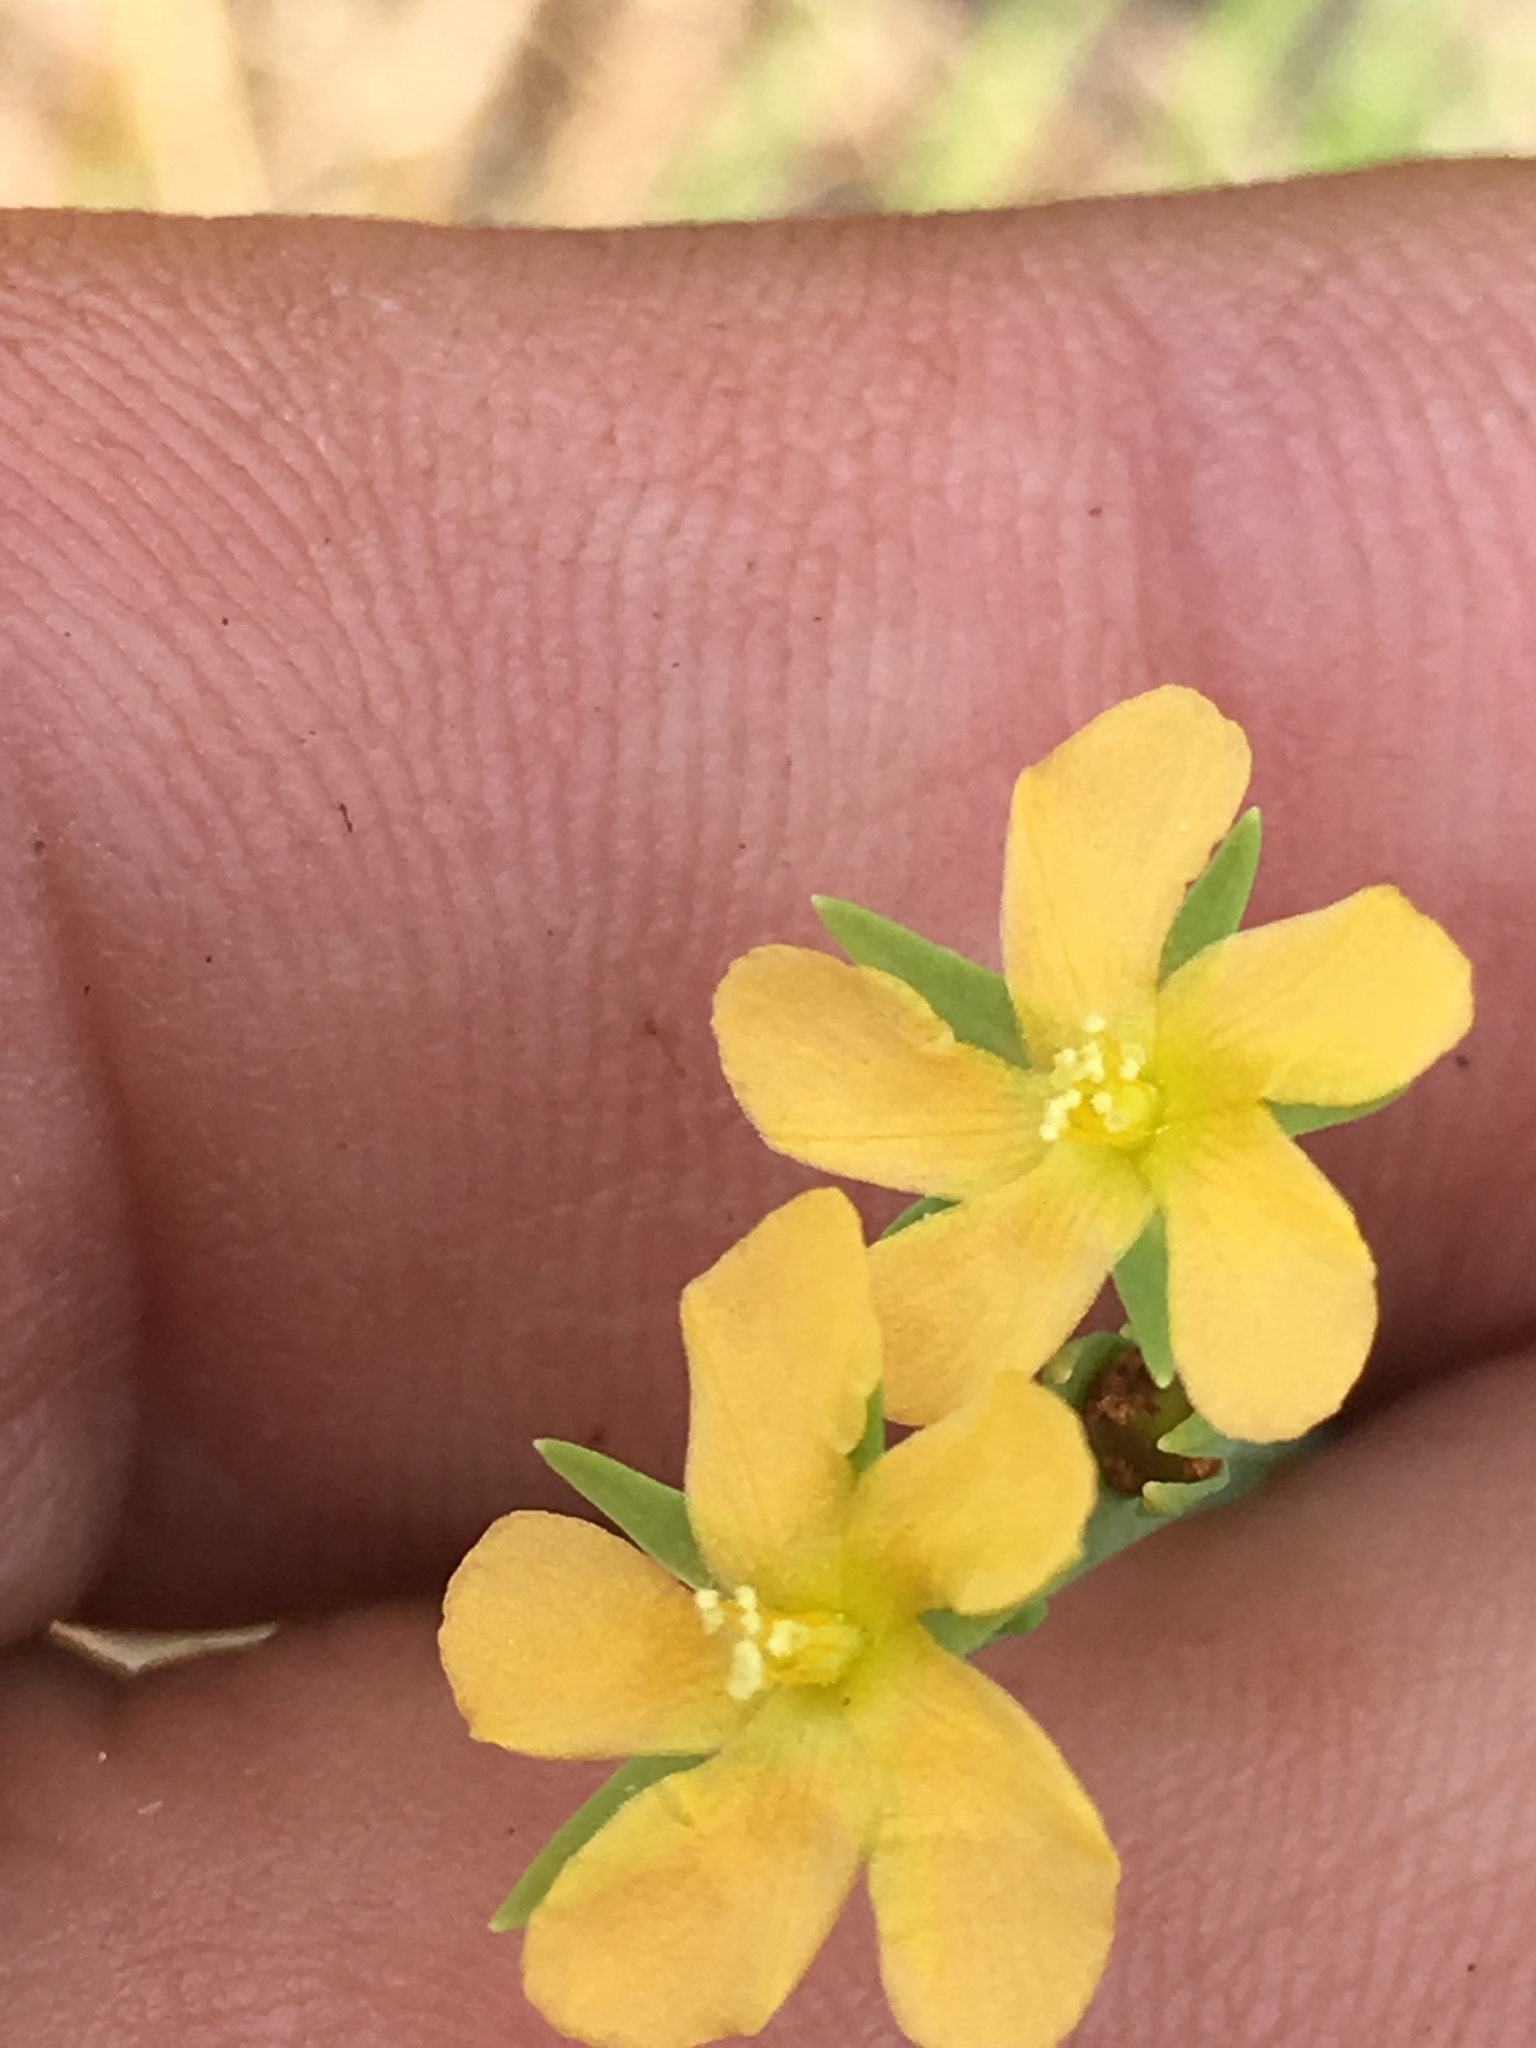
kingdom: Plantae
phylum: Tracheophyta
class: Magnoliopsida
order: Malpighiales
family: Hypericaceae
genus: Hypericum
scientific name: Hypericum drummondii
